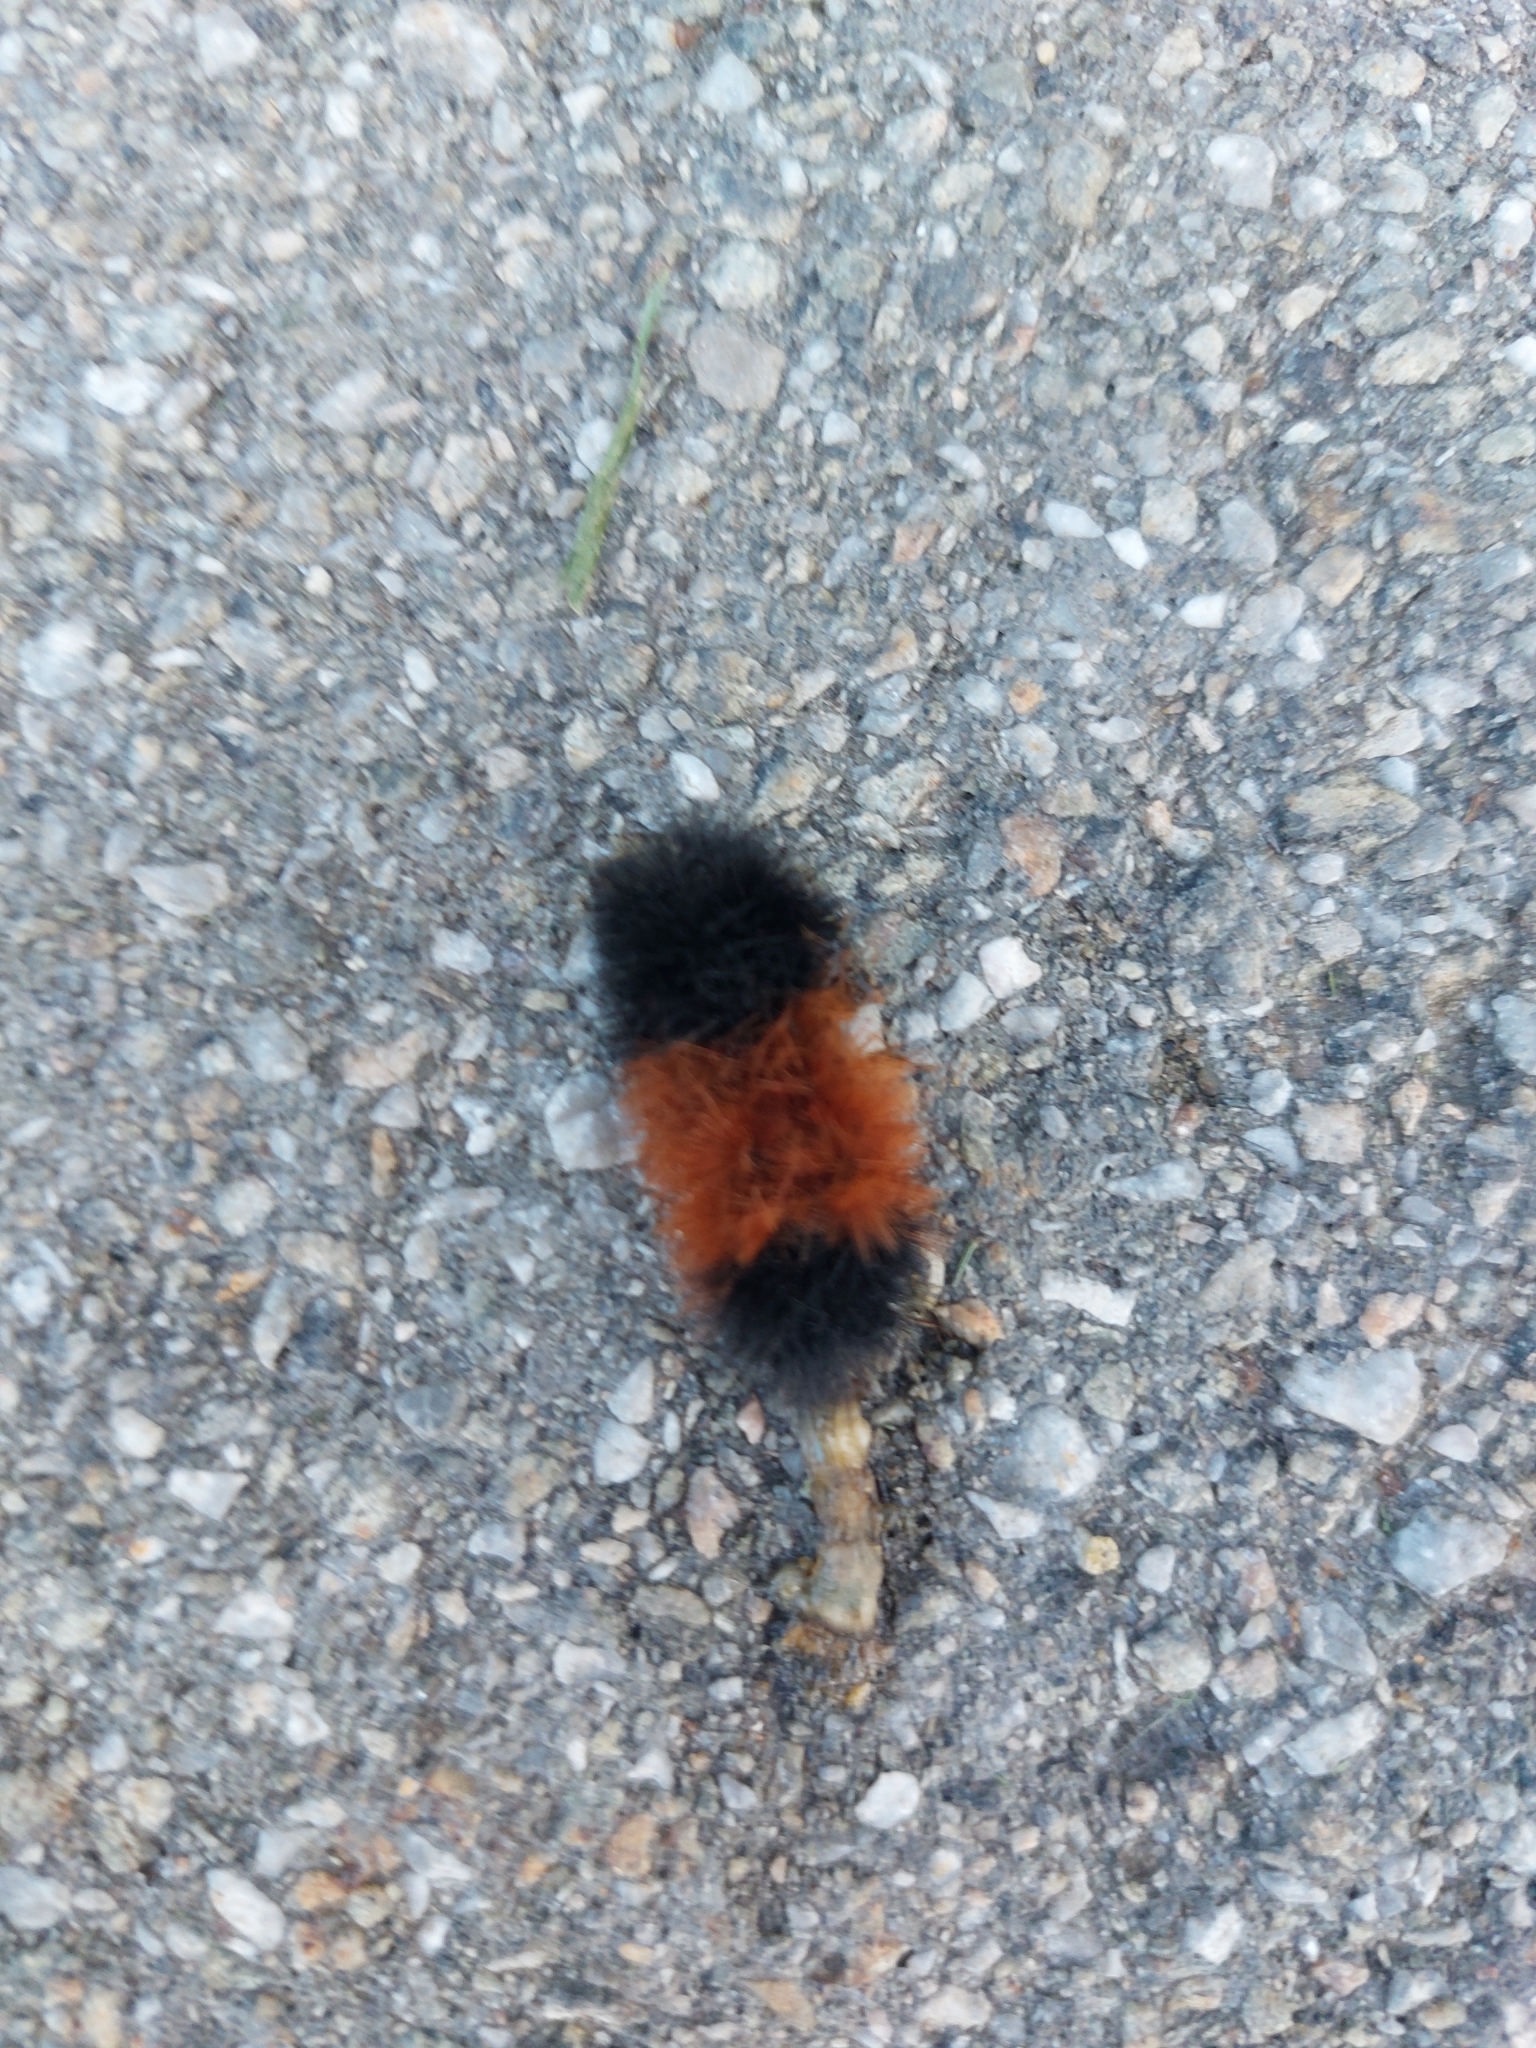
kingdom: Animalia
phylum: Arthropoda
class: Insecta
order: Lepidoptera
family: Erebidae
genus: Pyrrharctia
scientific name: Pyrrharctia isabella
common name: Isabella tiger moth
